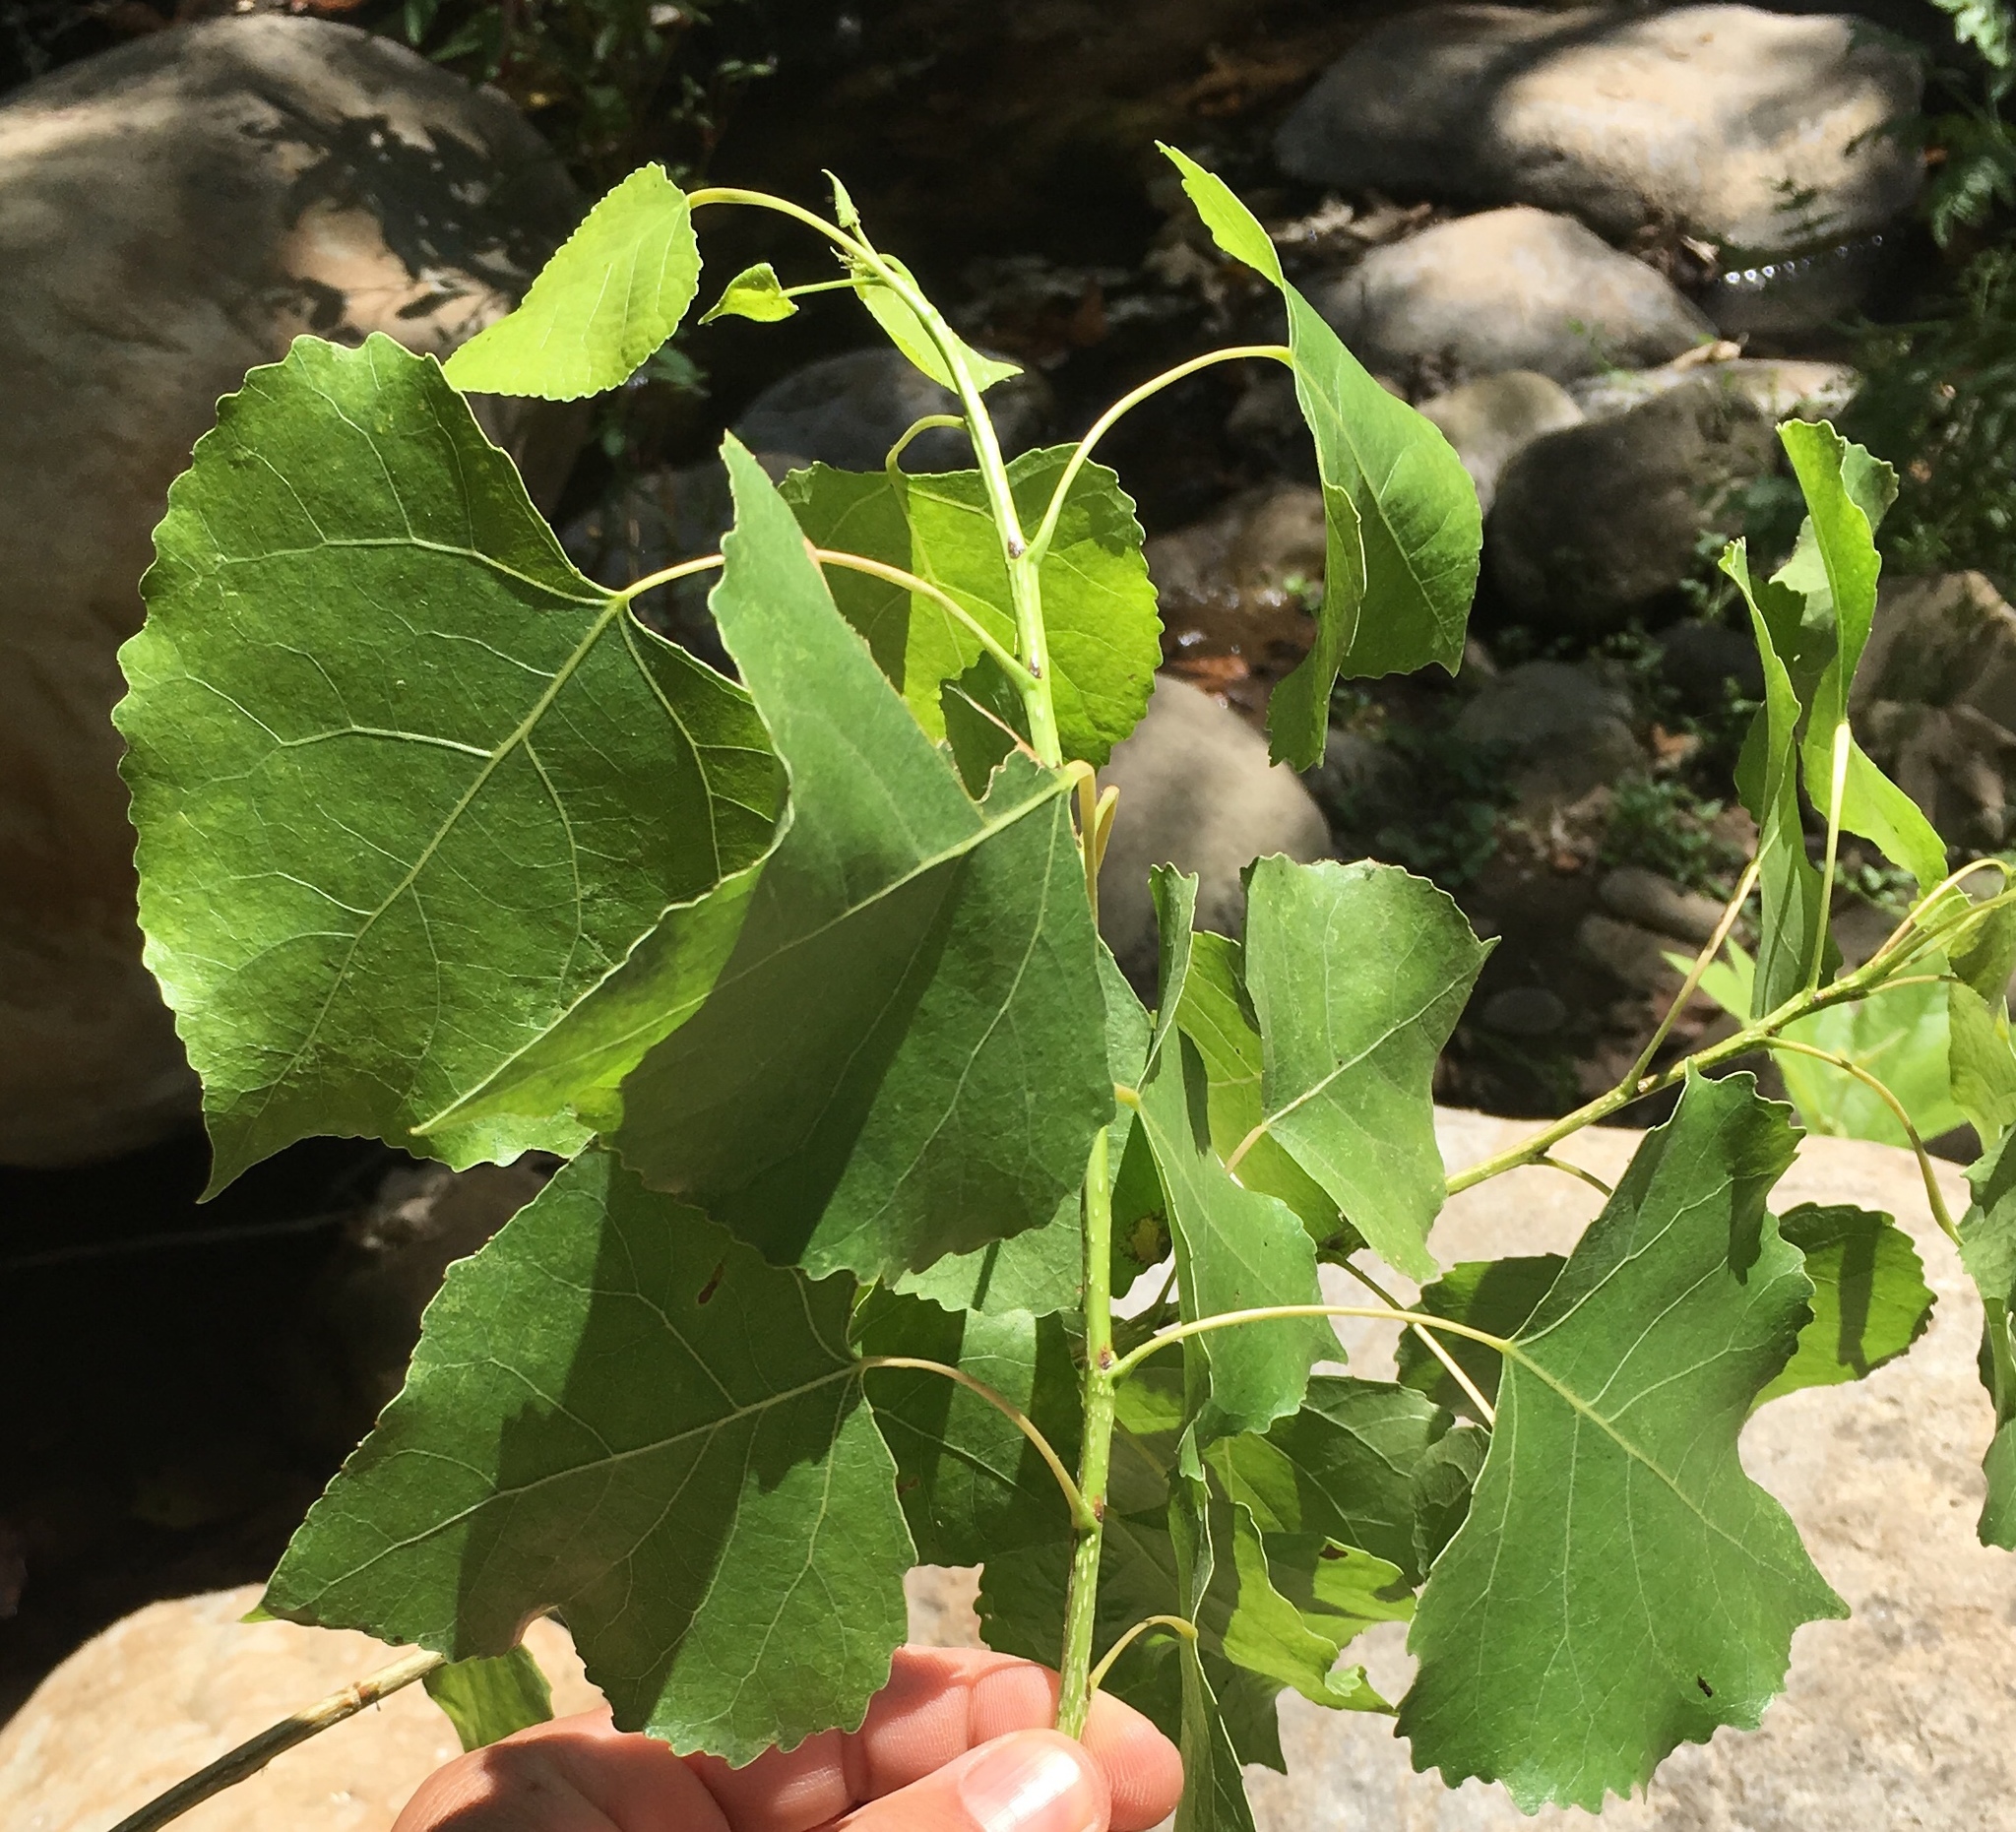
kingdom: Plantae
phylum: Tracheophyta
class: Magnoliopsida
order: Malpighiales
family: Salicaceae
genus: Populus
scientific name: Populus fremontii
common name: Fremont's cottonwood
